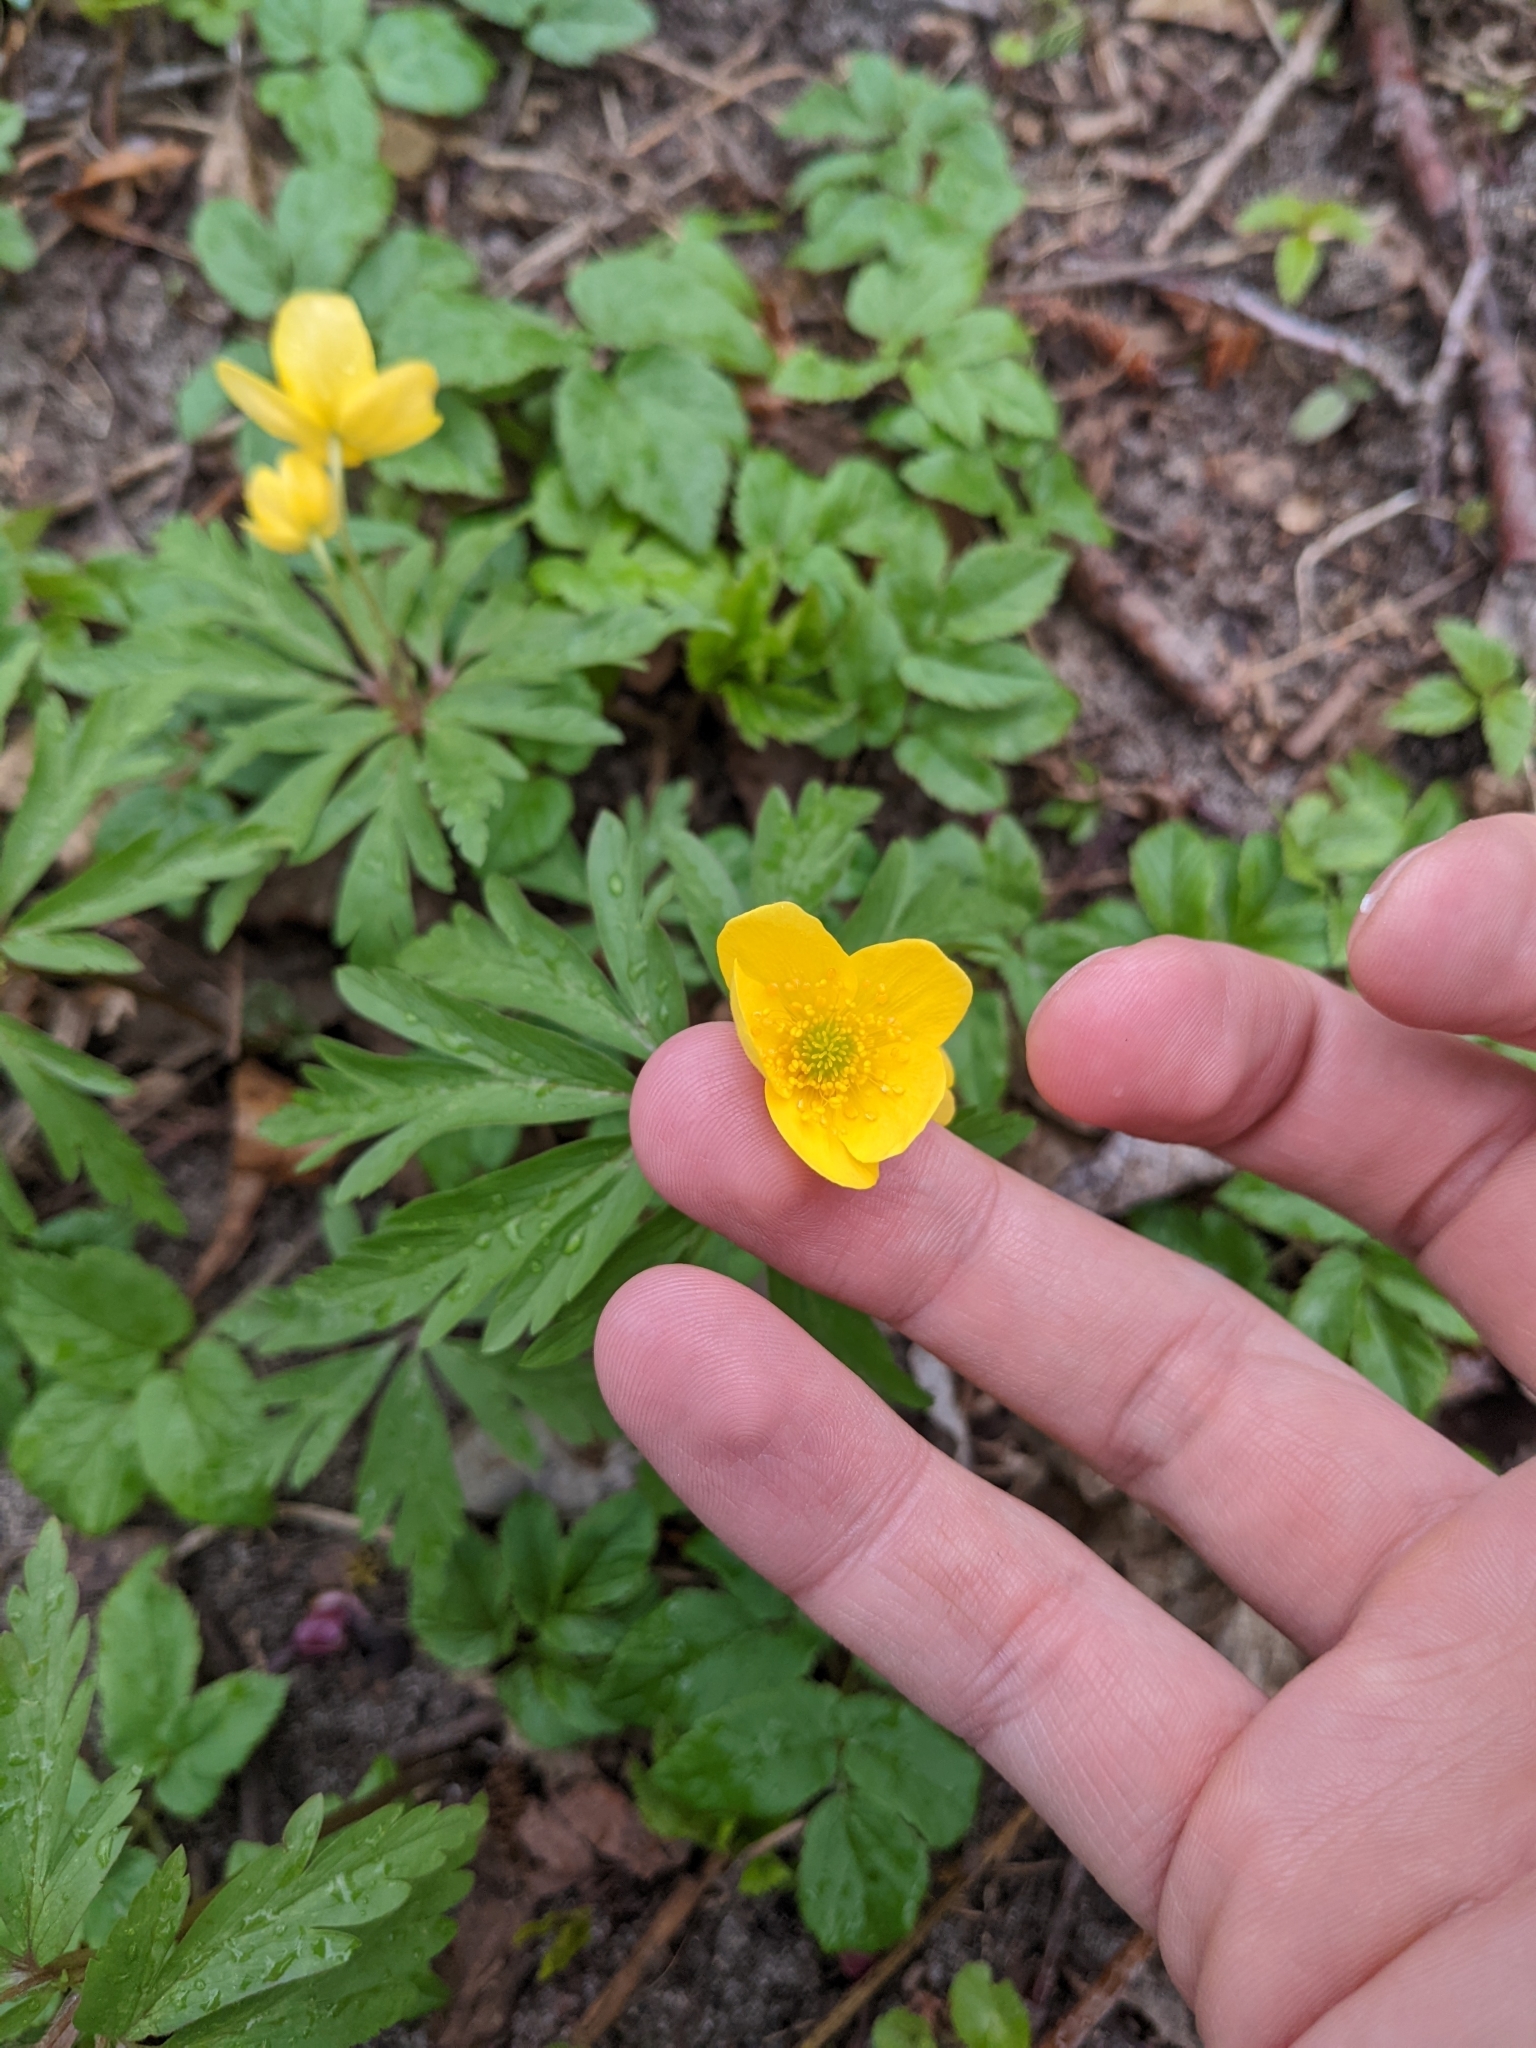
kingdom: Plantae
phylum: Tracheophyta
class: Magnoliopsida
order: Ranunculales
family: Ranunculaceae
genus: Anemone
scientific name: Anemone ranunculoides
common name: Yellow anemone
